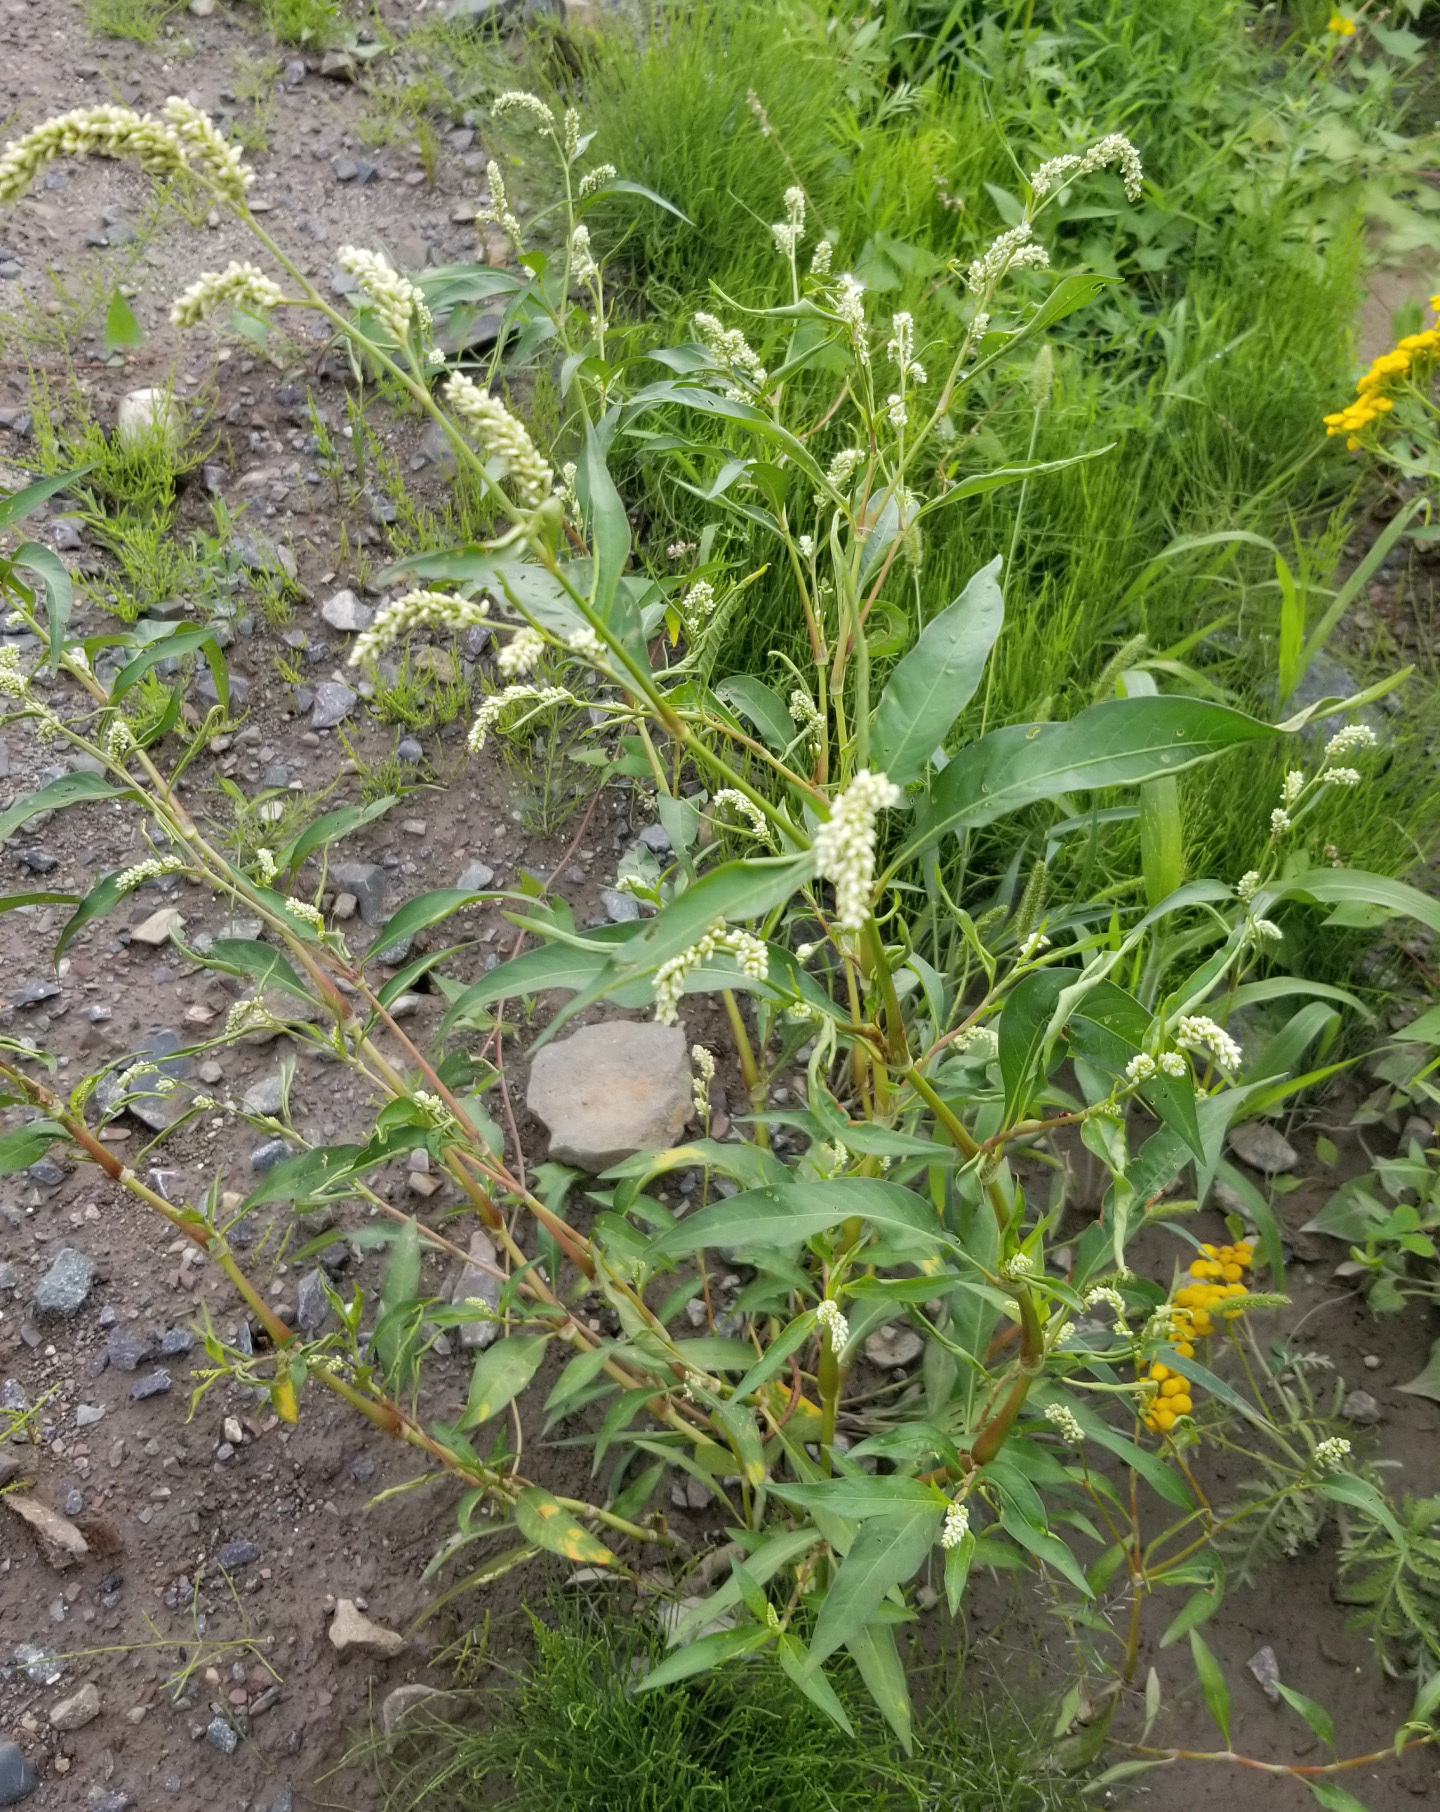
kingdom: Plantae
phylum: Tracheophyta
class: Magnoliopsida
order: Caryophyllales
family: Polygonaceae
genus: Persicaria
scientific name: Persicaria lapathifolia
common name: Curlytop knotweed
